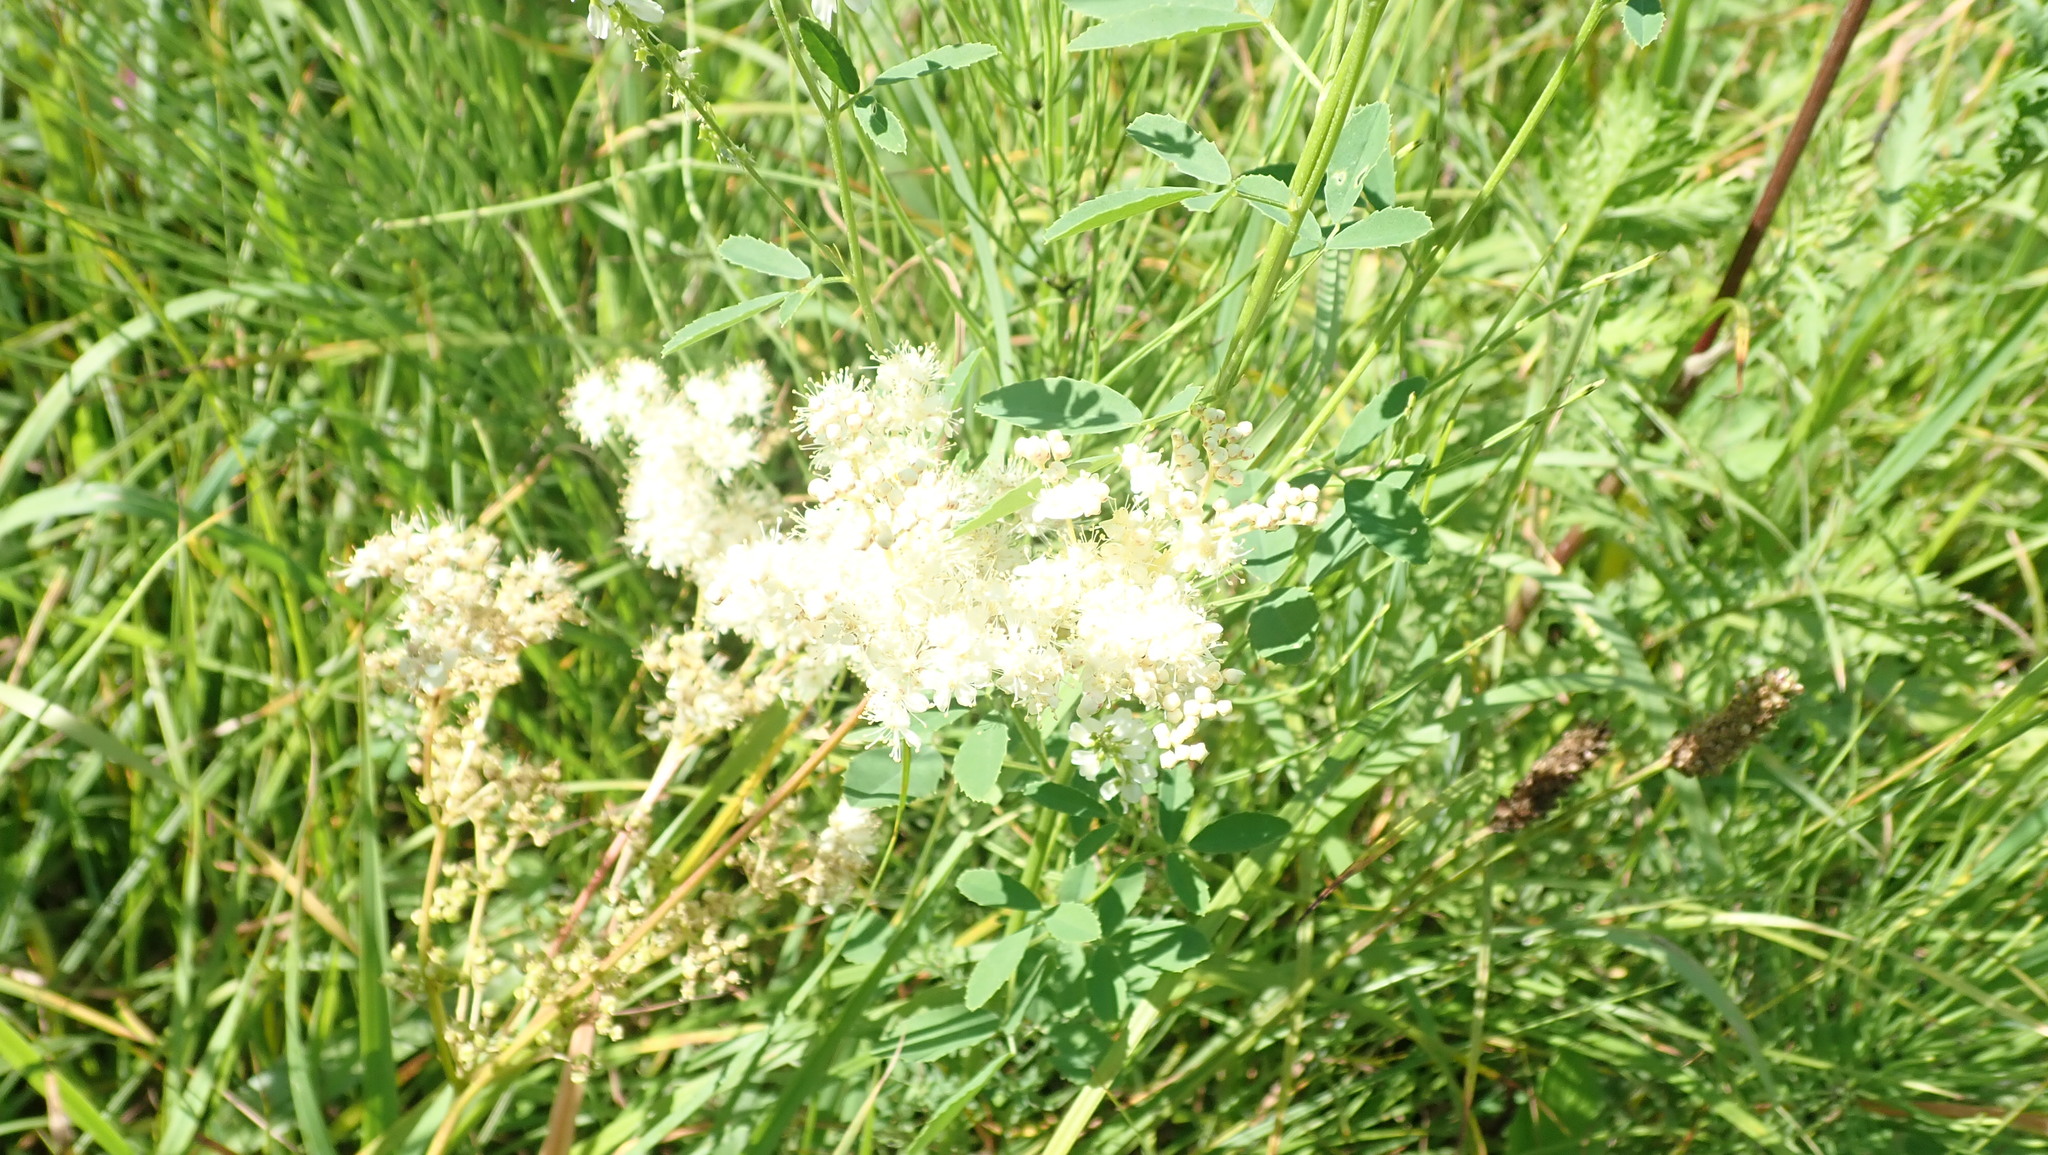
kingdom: Plantae
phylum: Tracheophyta
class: Magnoliopsida
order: Rosales
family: Rosaceae
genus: Filipendula
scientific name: Filipendula ulmaria
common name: Meadowsweet
